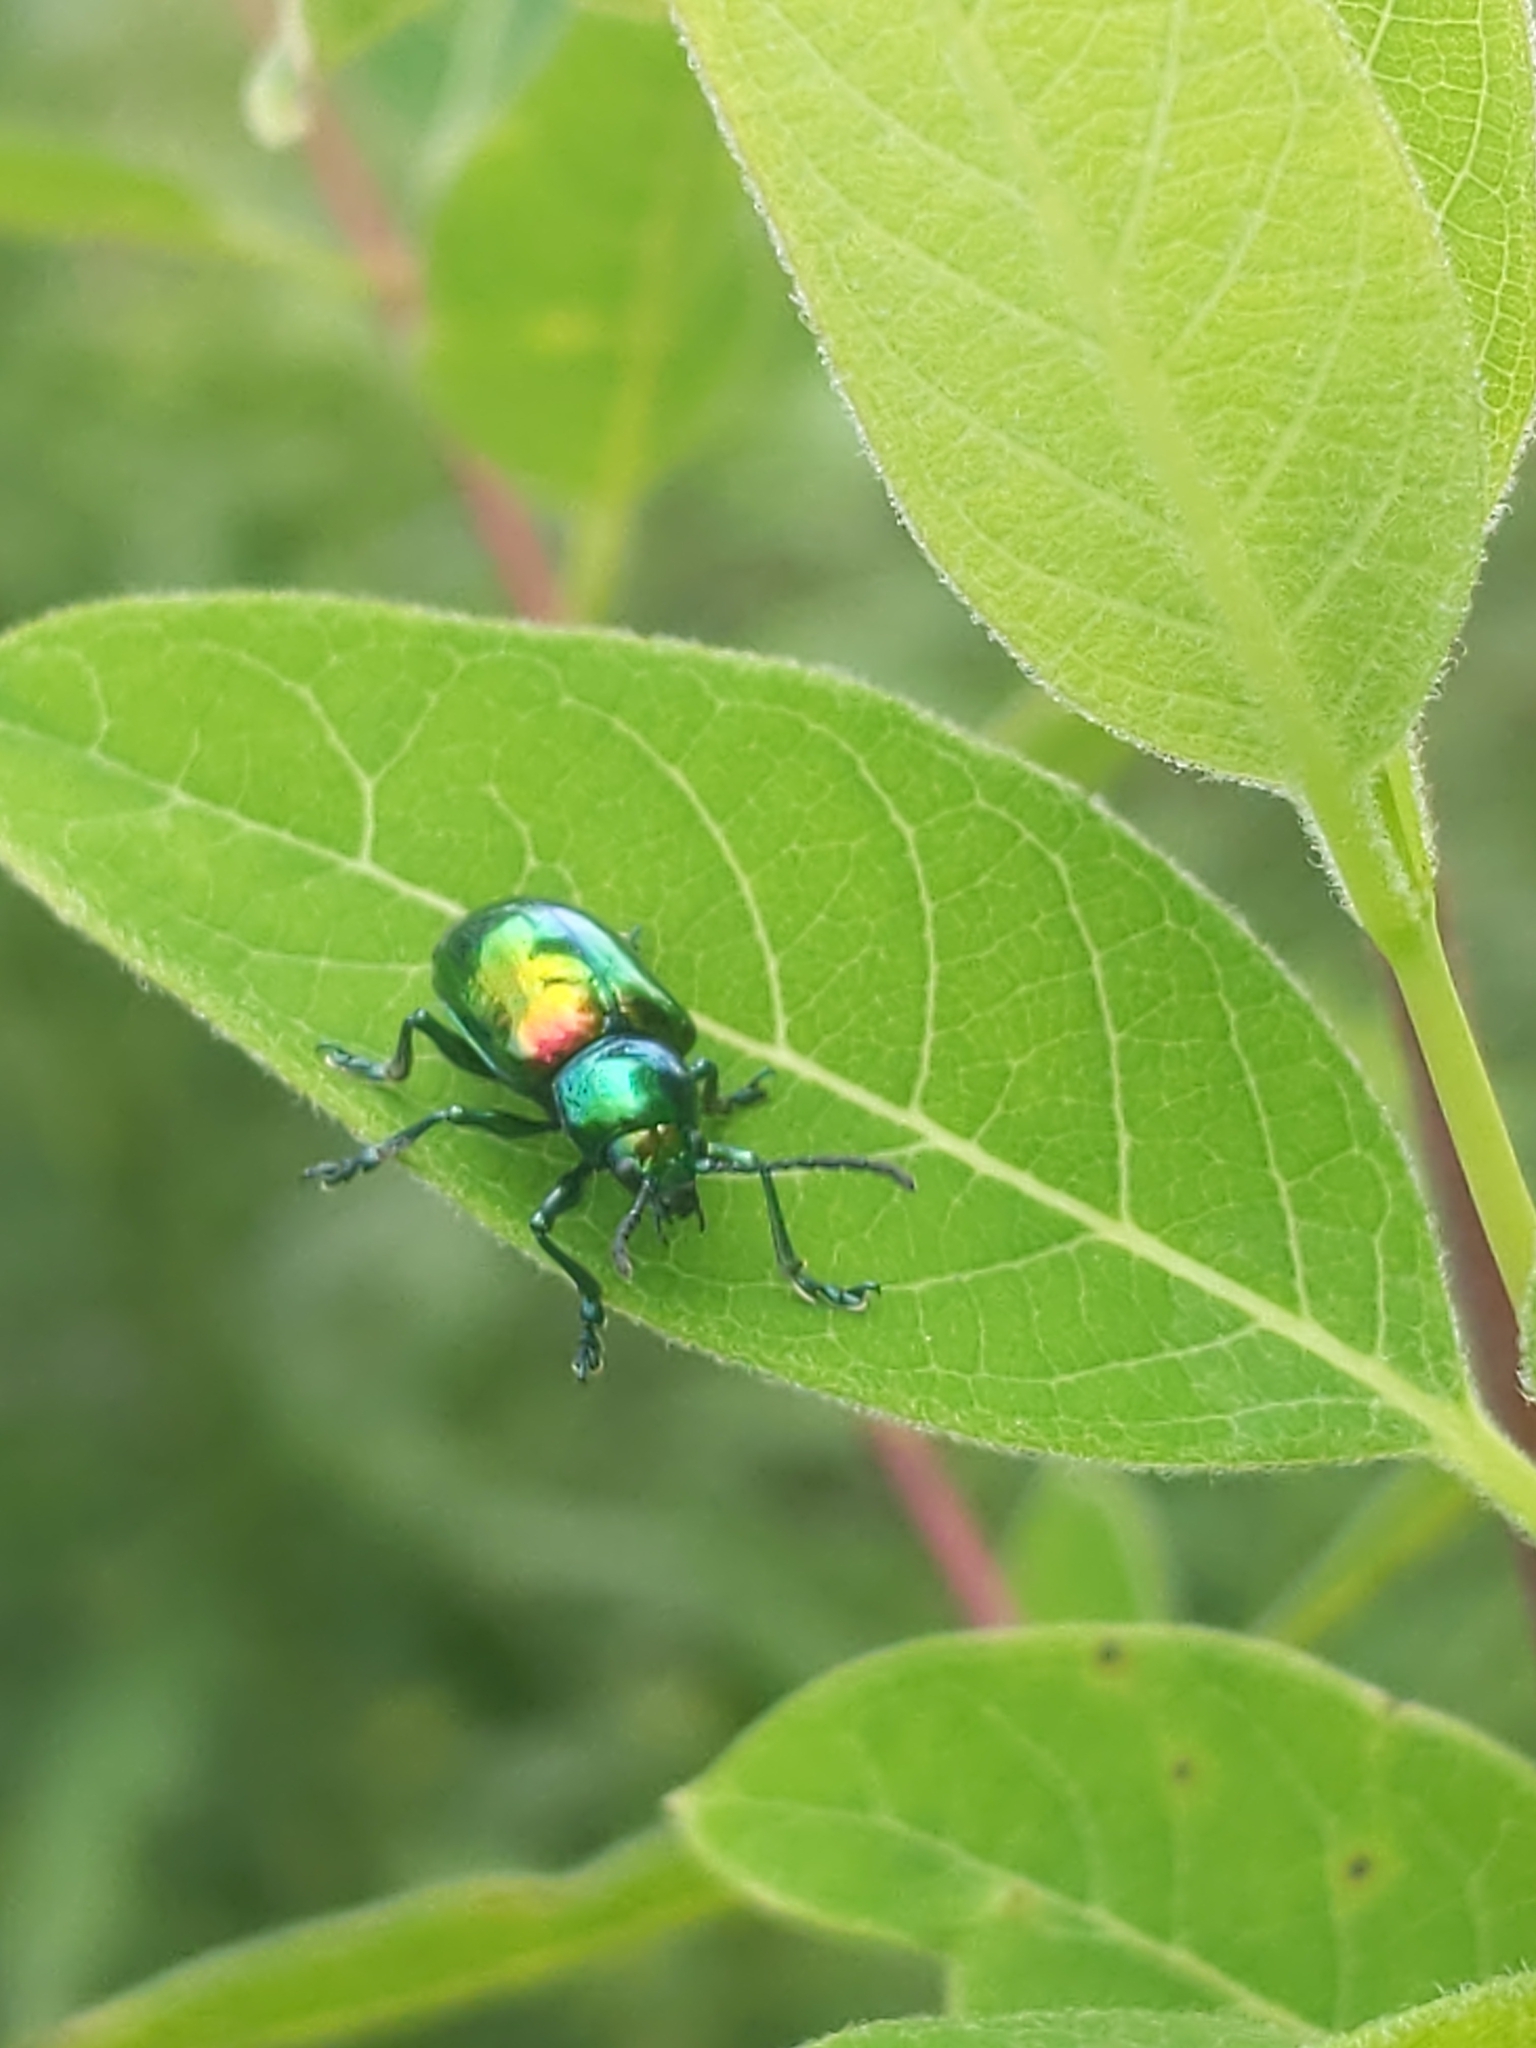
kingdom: Animalia
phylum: Arthropoda
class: Insecta
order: Coleoptera
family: Chrysomelidae
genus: Chrysochus
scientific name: Chrysochus auratus
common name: Dogbane leaf beetle
